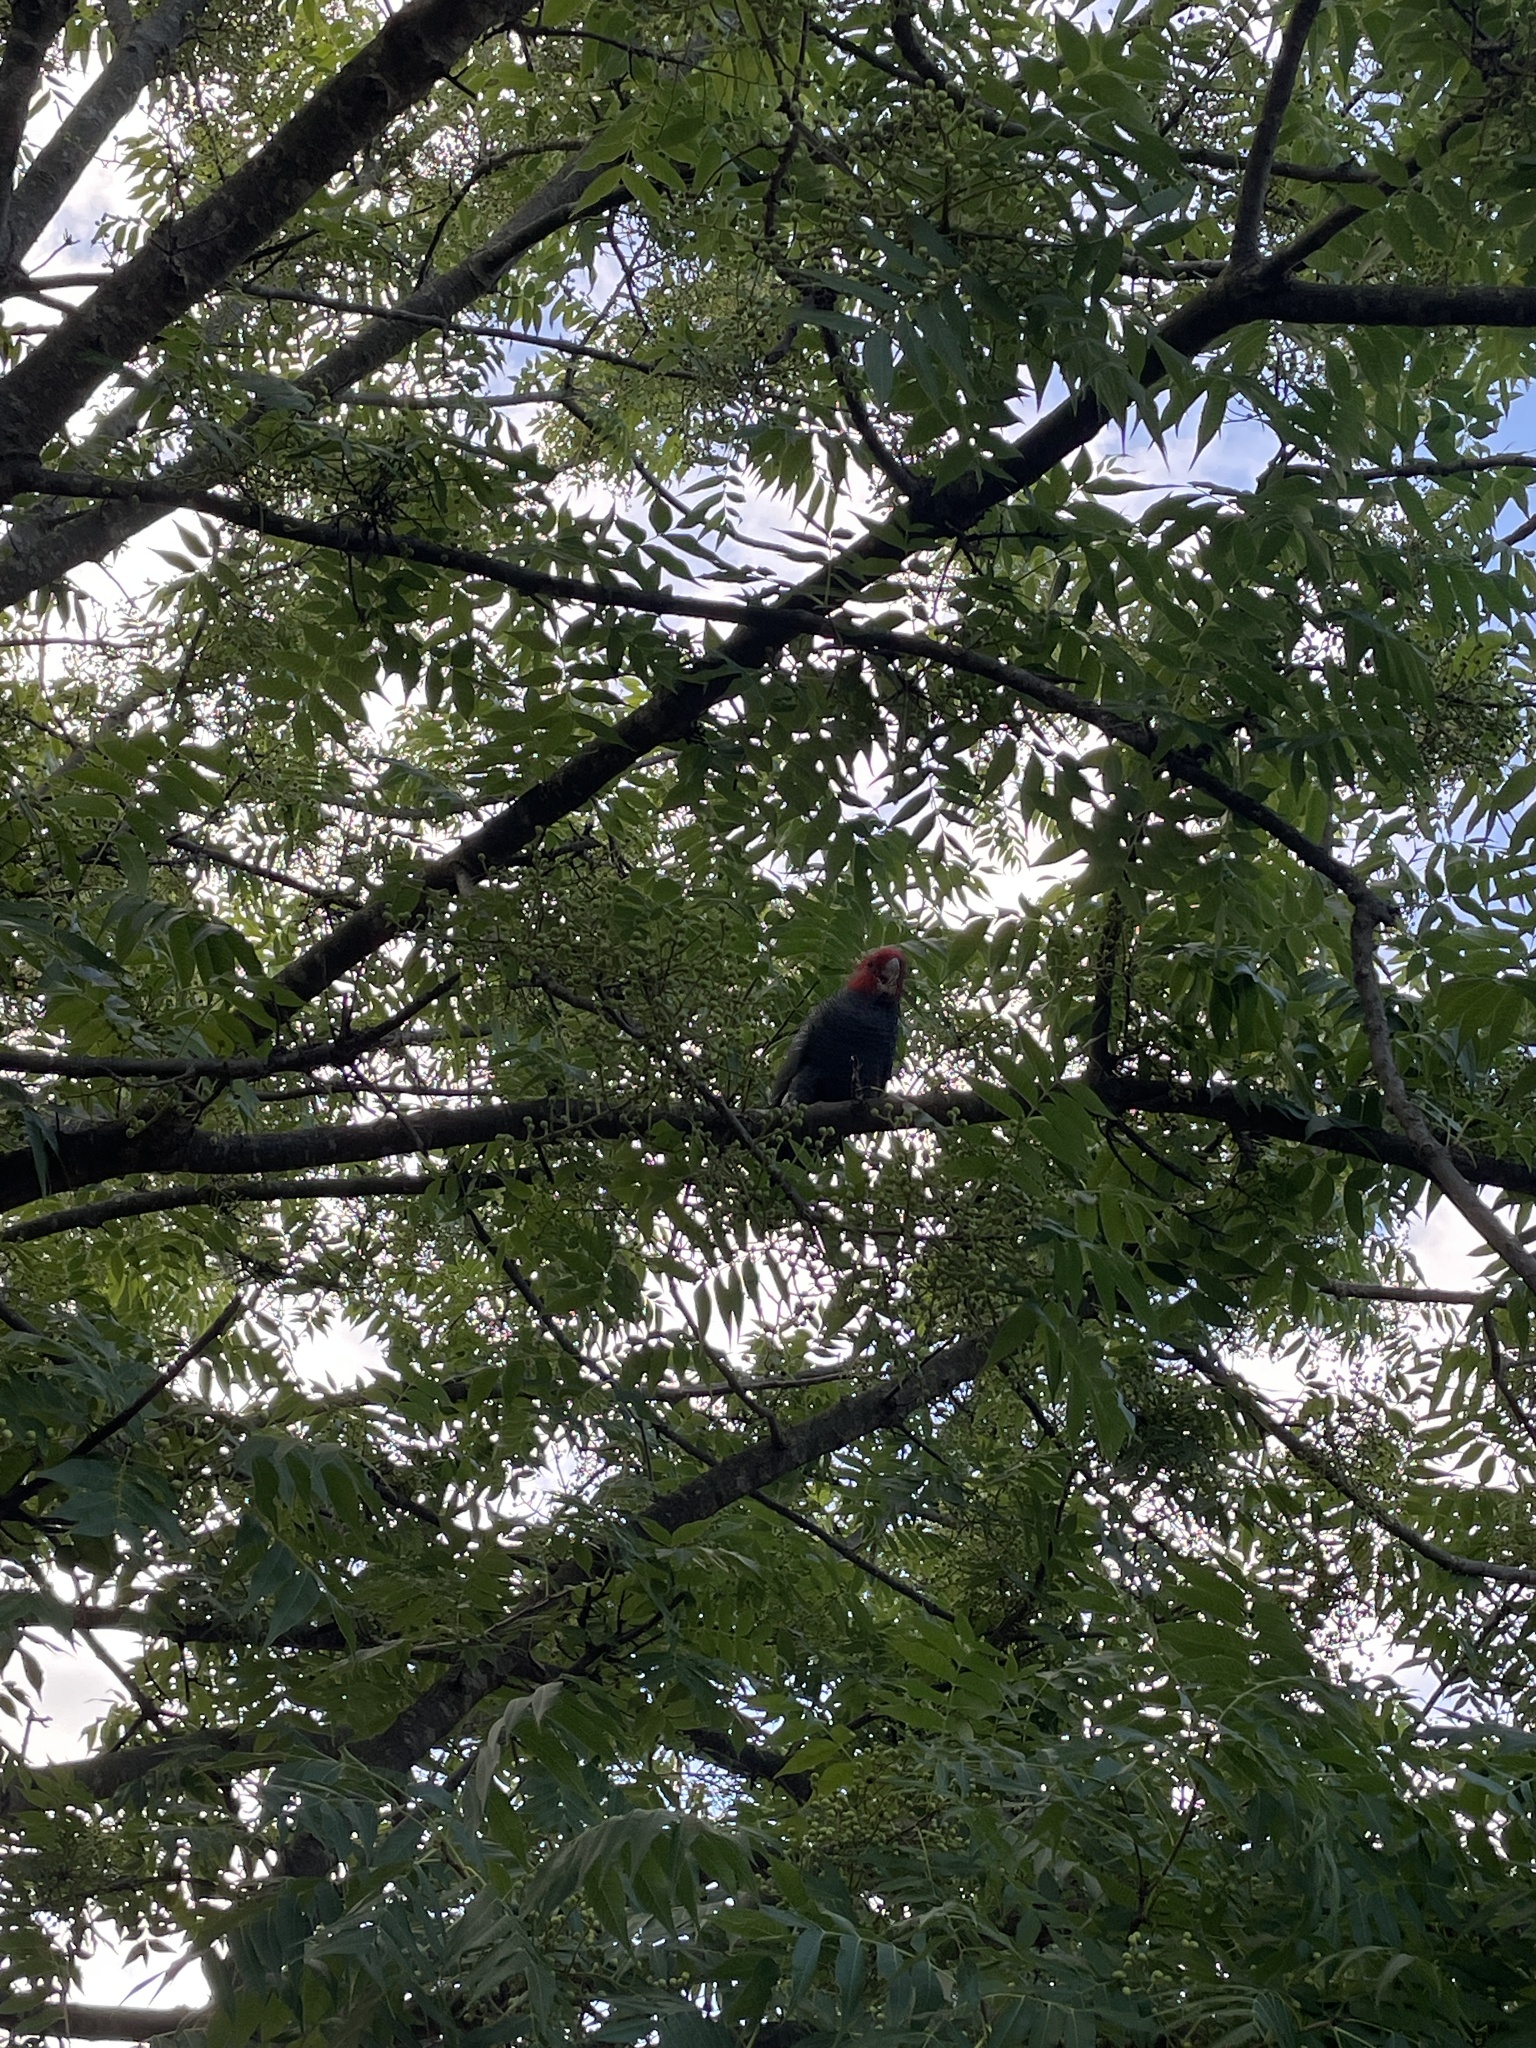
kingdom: Animalia
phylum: Chordata
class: Aves
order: Psittaciformes
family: Psittacidae
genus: Callocephalon
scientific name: Callocephalon fimbriatum
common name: Gang-gang cockatoo
